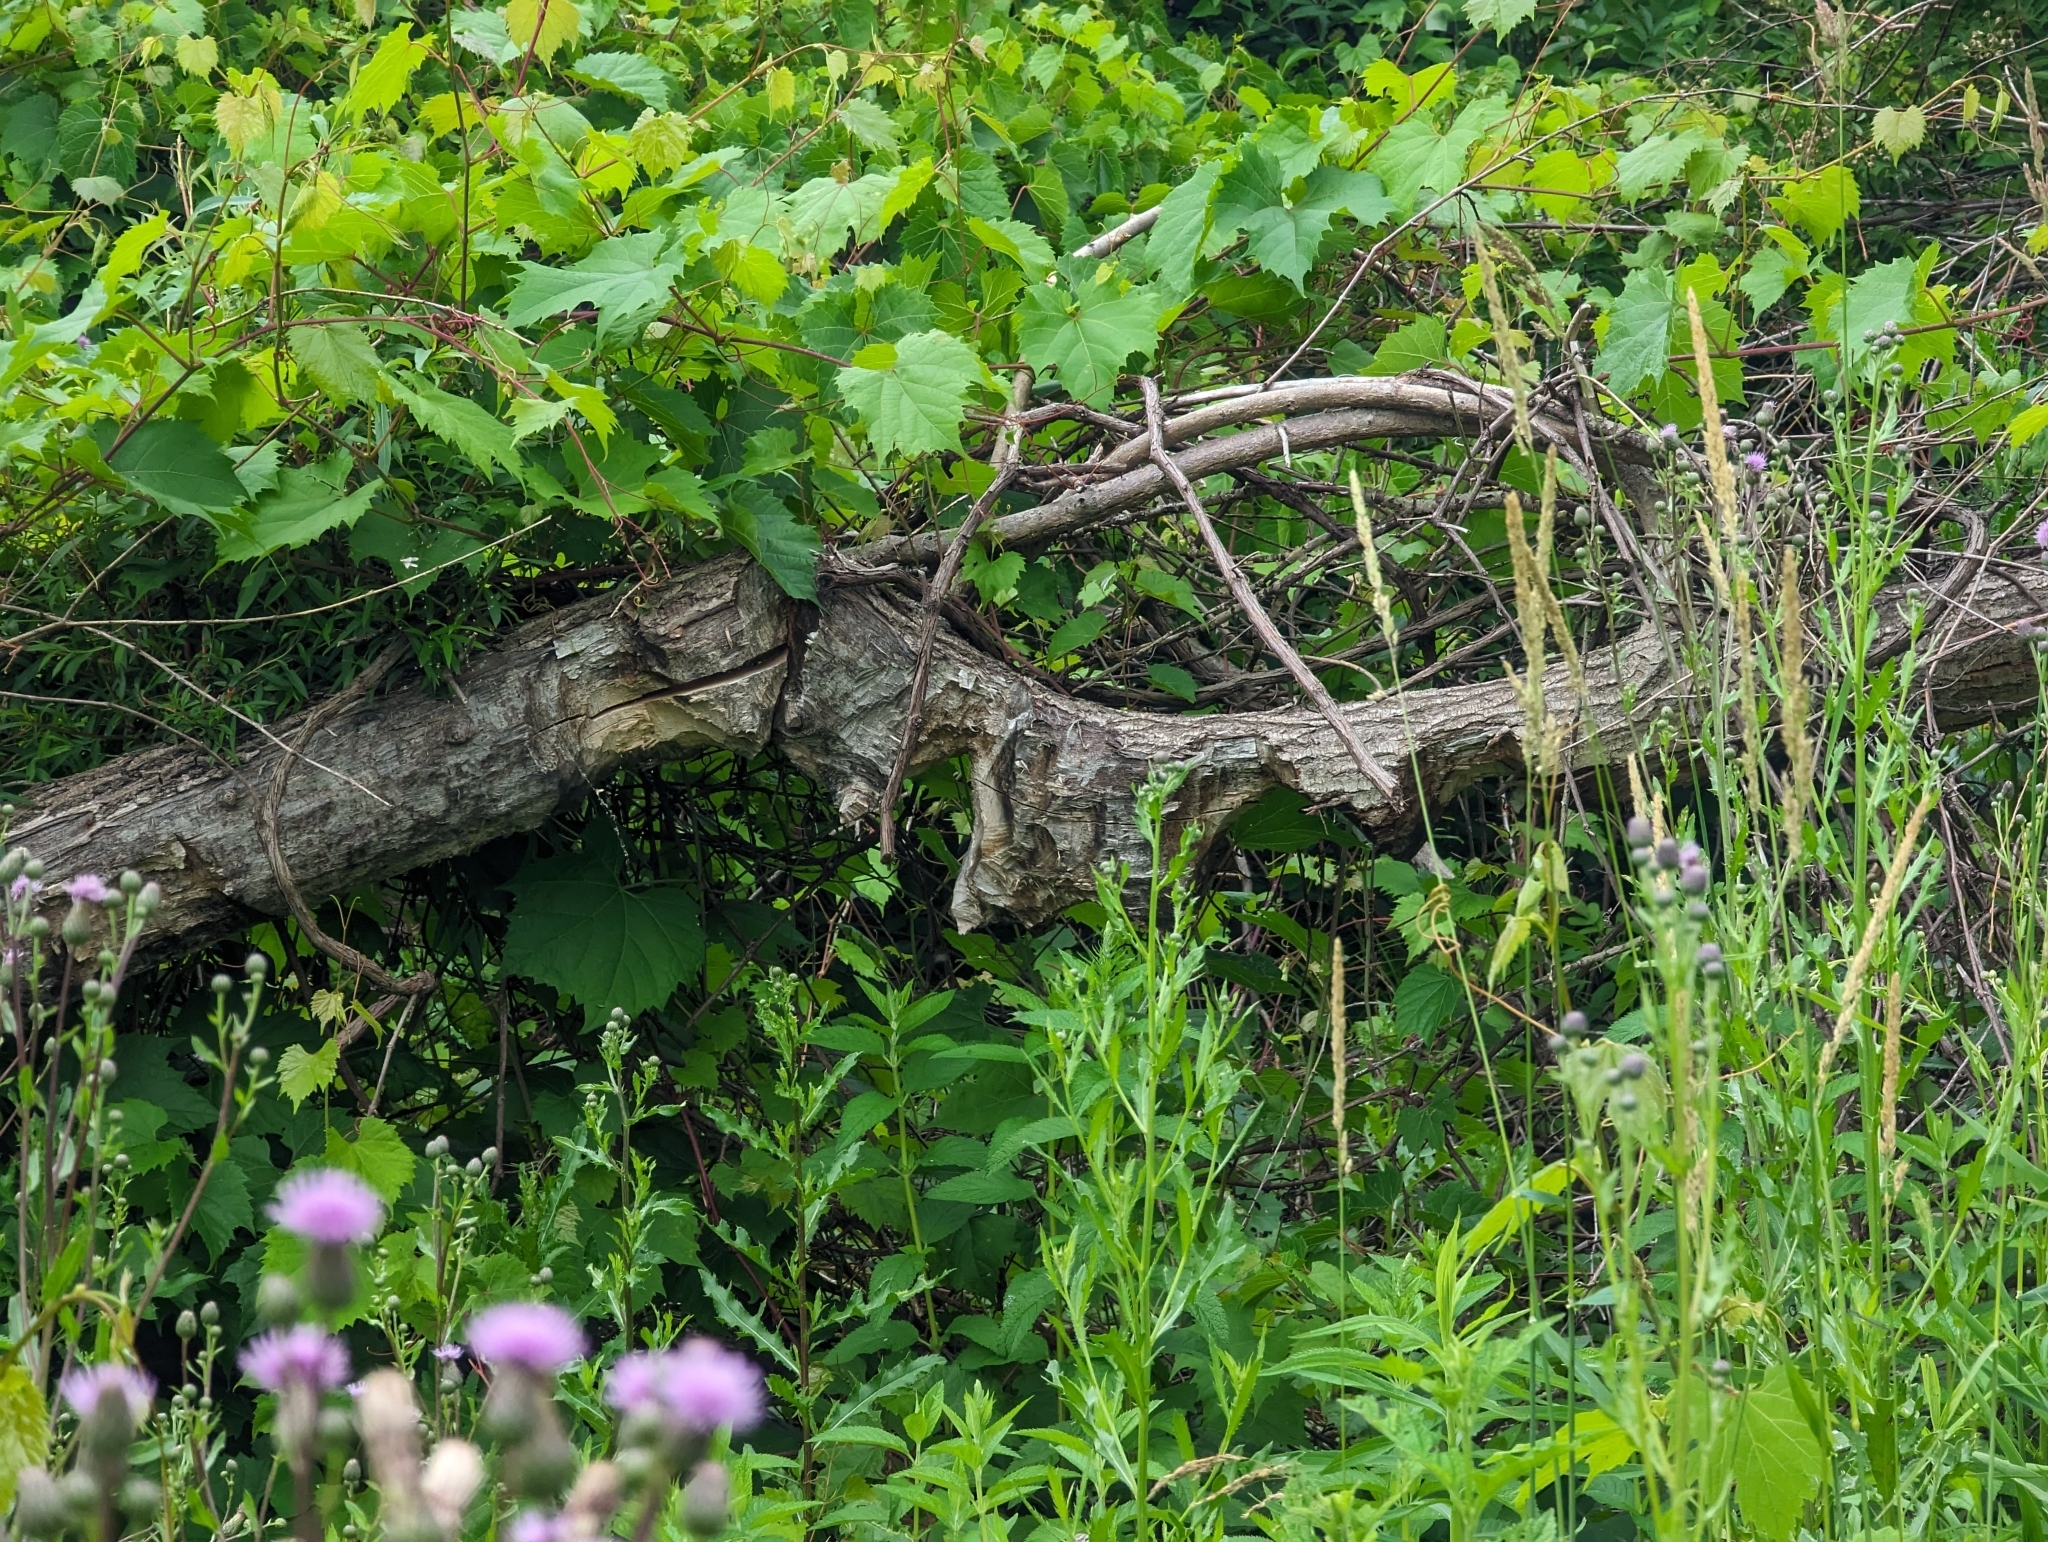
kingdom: Animalia
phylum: Chordata
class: Mammalia
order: Rodentia
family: Castoridae
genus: Castor
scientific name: Castor canadensis
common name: American beaver
